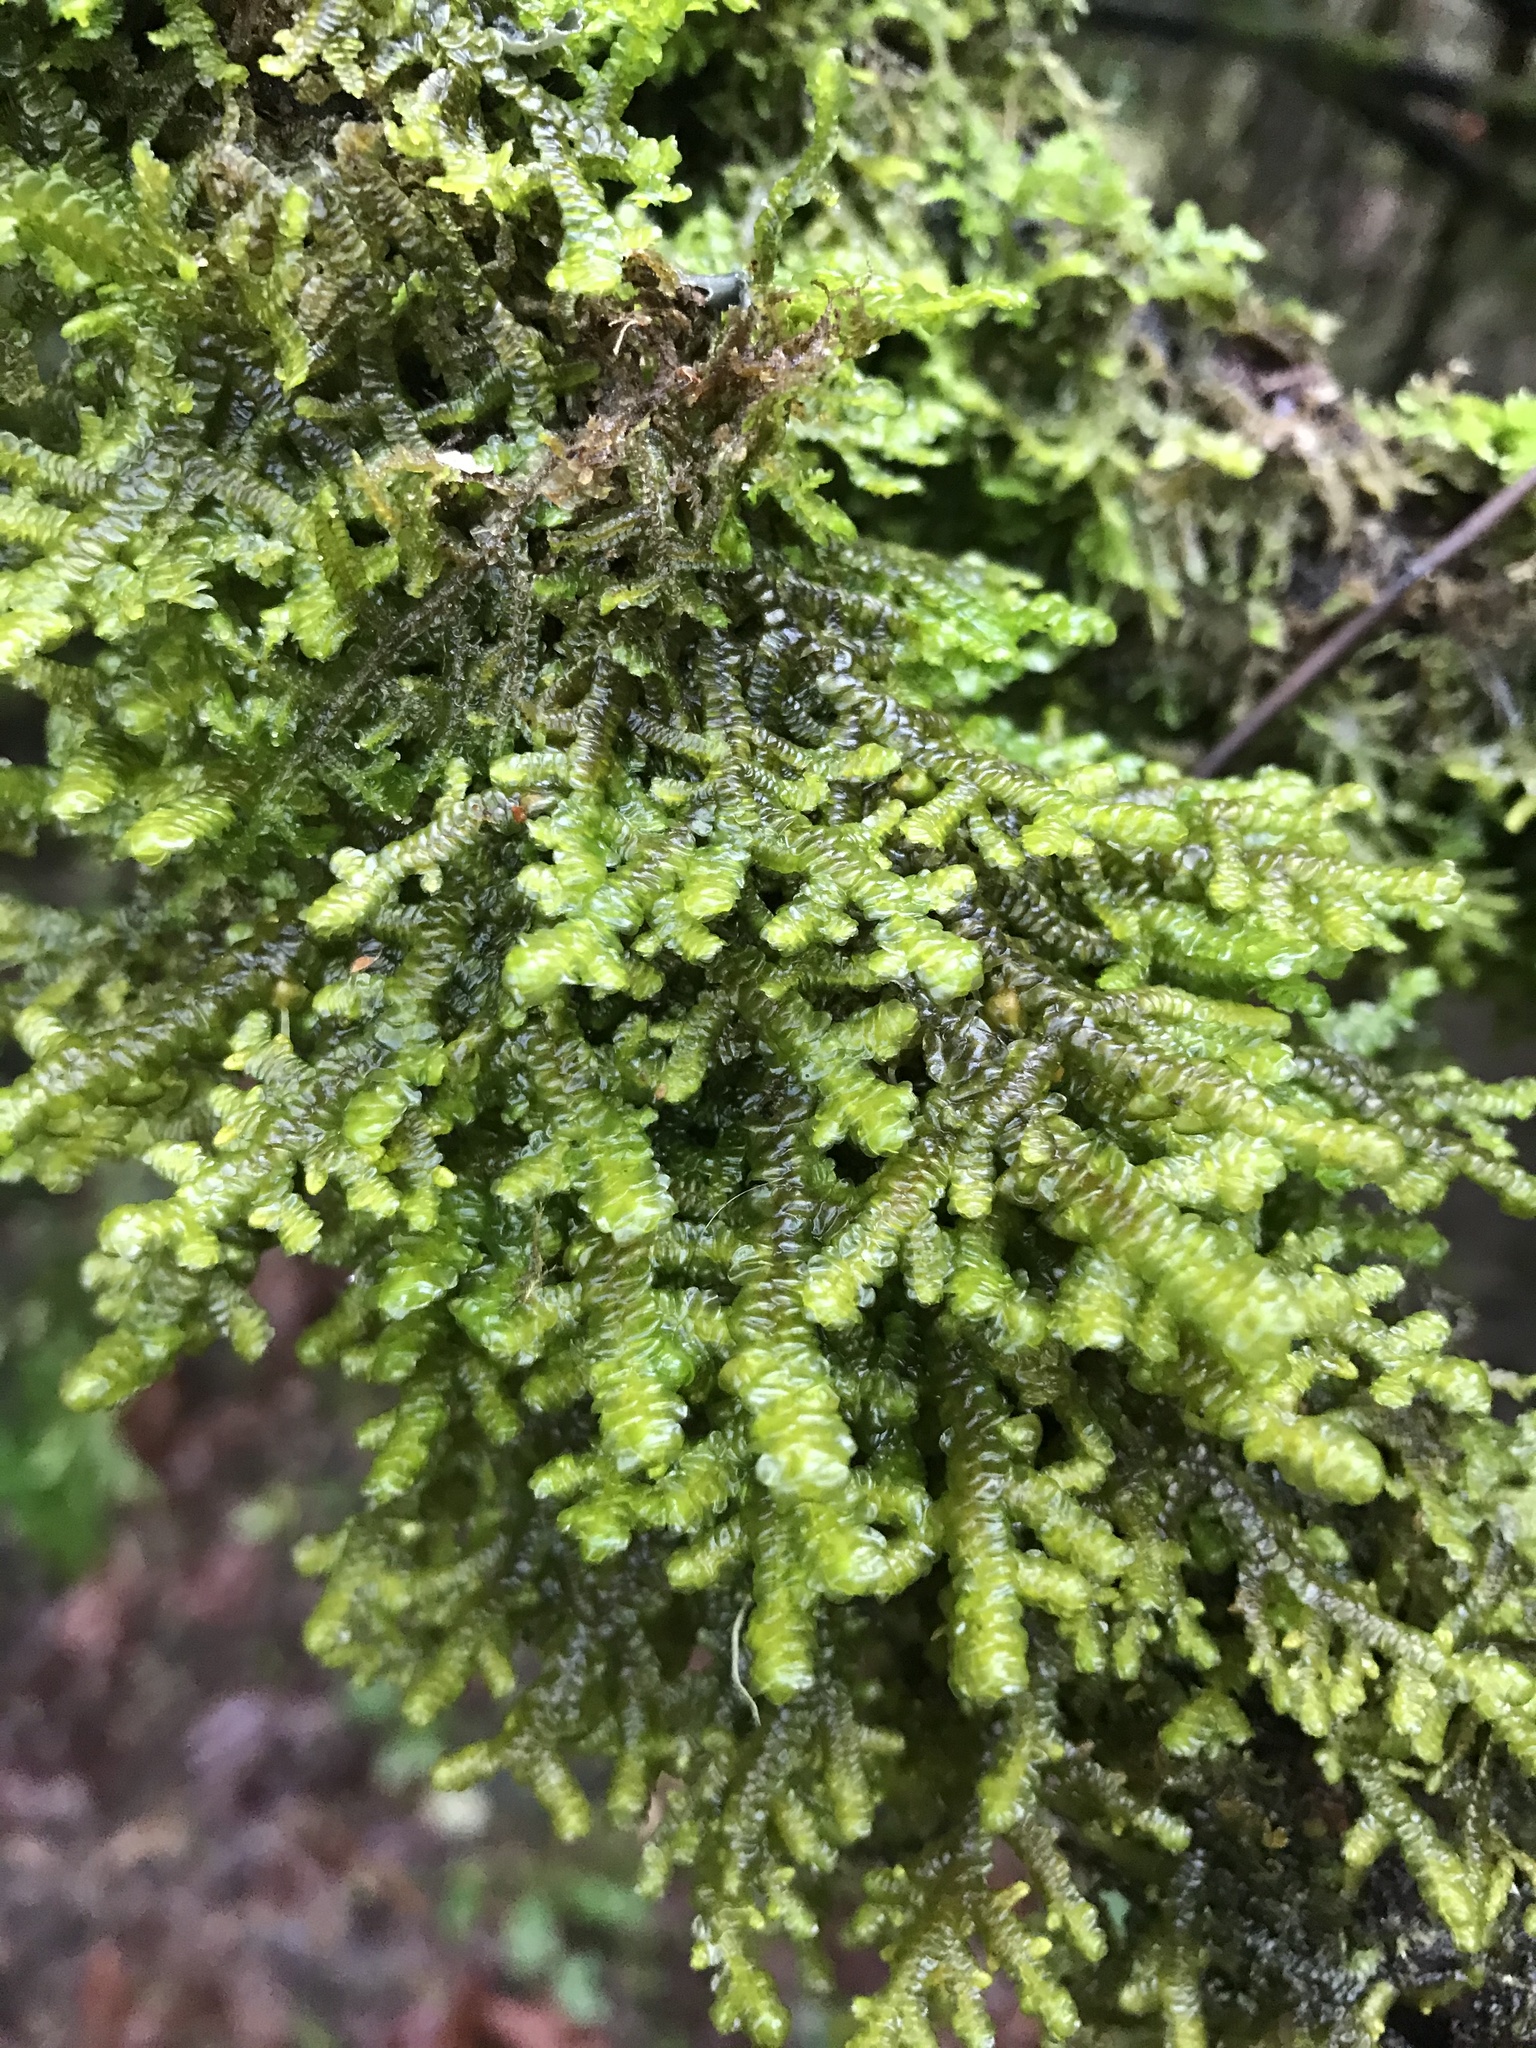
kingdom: Plantae
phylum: Marchantiophyta
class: Jungermanniopsida
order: Porellales
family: Porellaceae
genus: Porella
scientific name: Porella navicularis
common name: Tree ruffle liverwort
